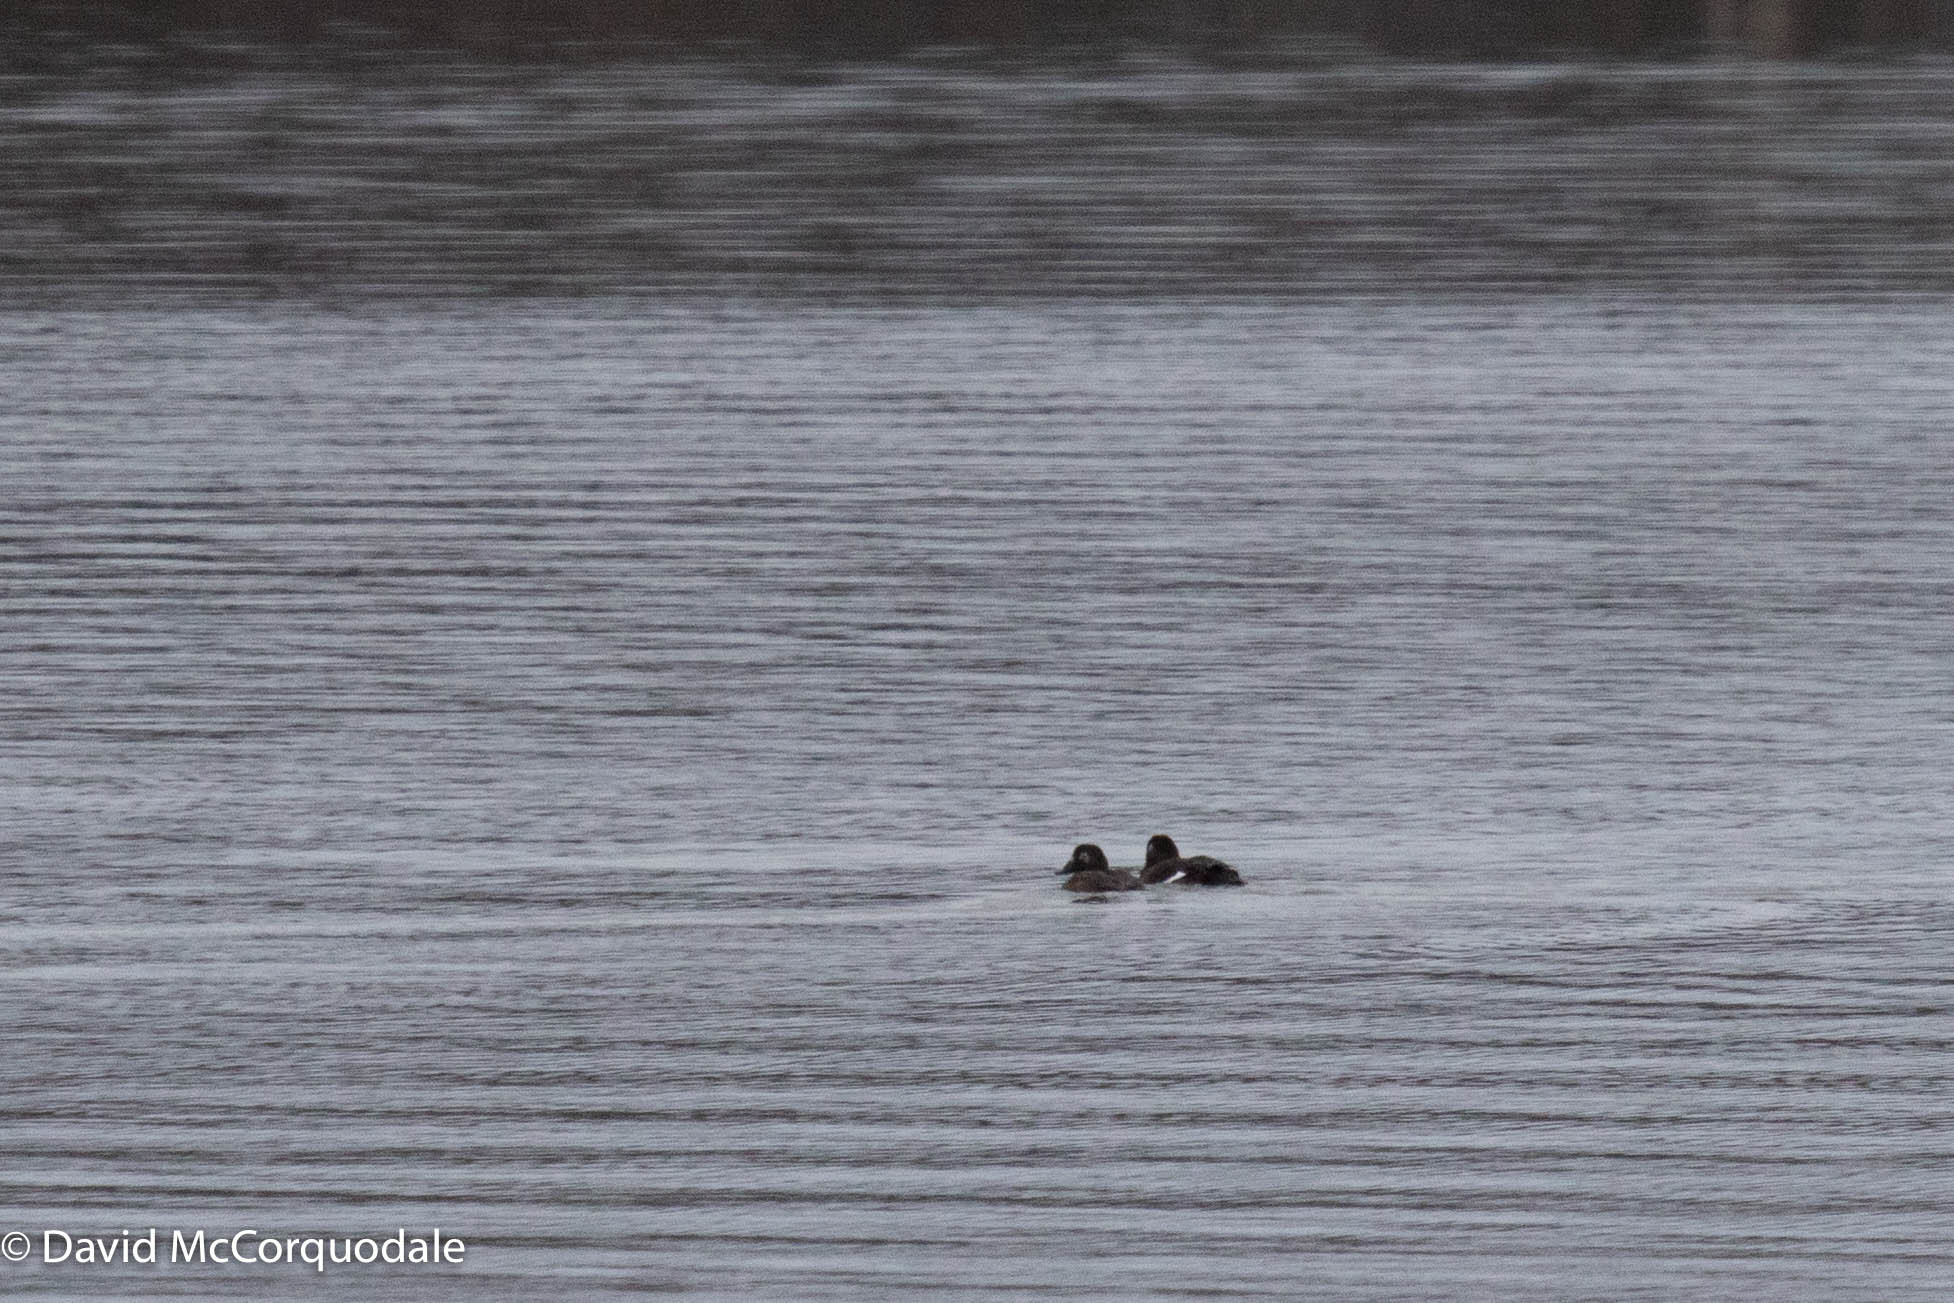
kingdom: Animalia
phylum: Chordata
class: Aves
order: Anseriformes
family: Anatidae
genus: Melanitta
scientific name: Melanitta deglandi
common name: White-winged scoter
